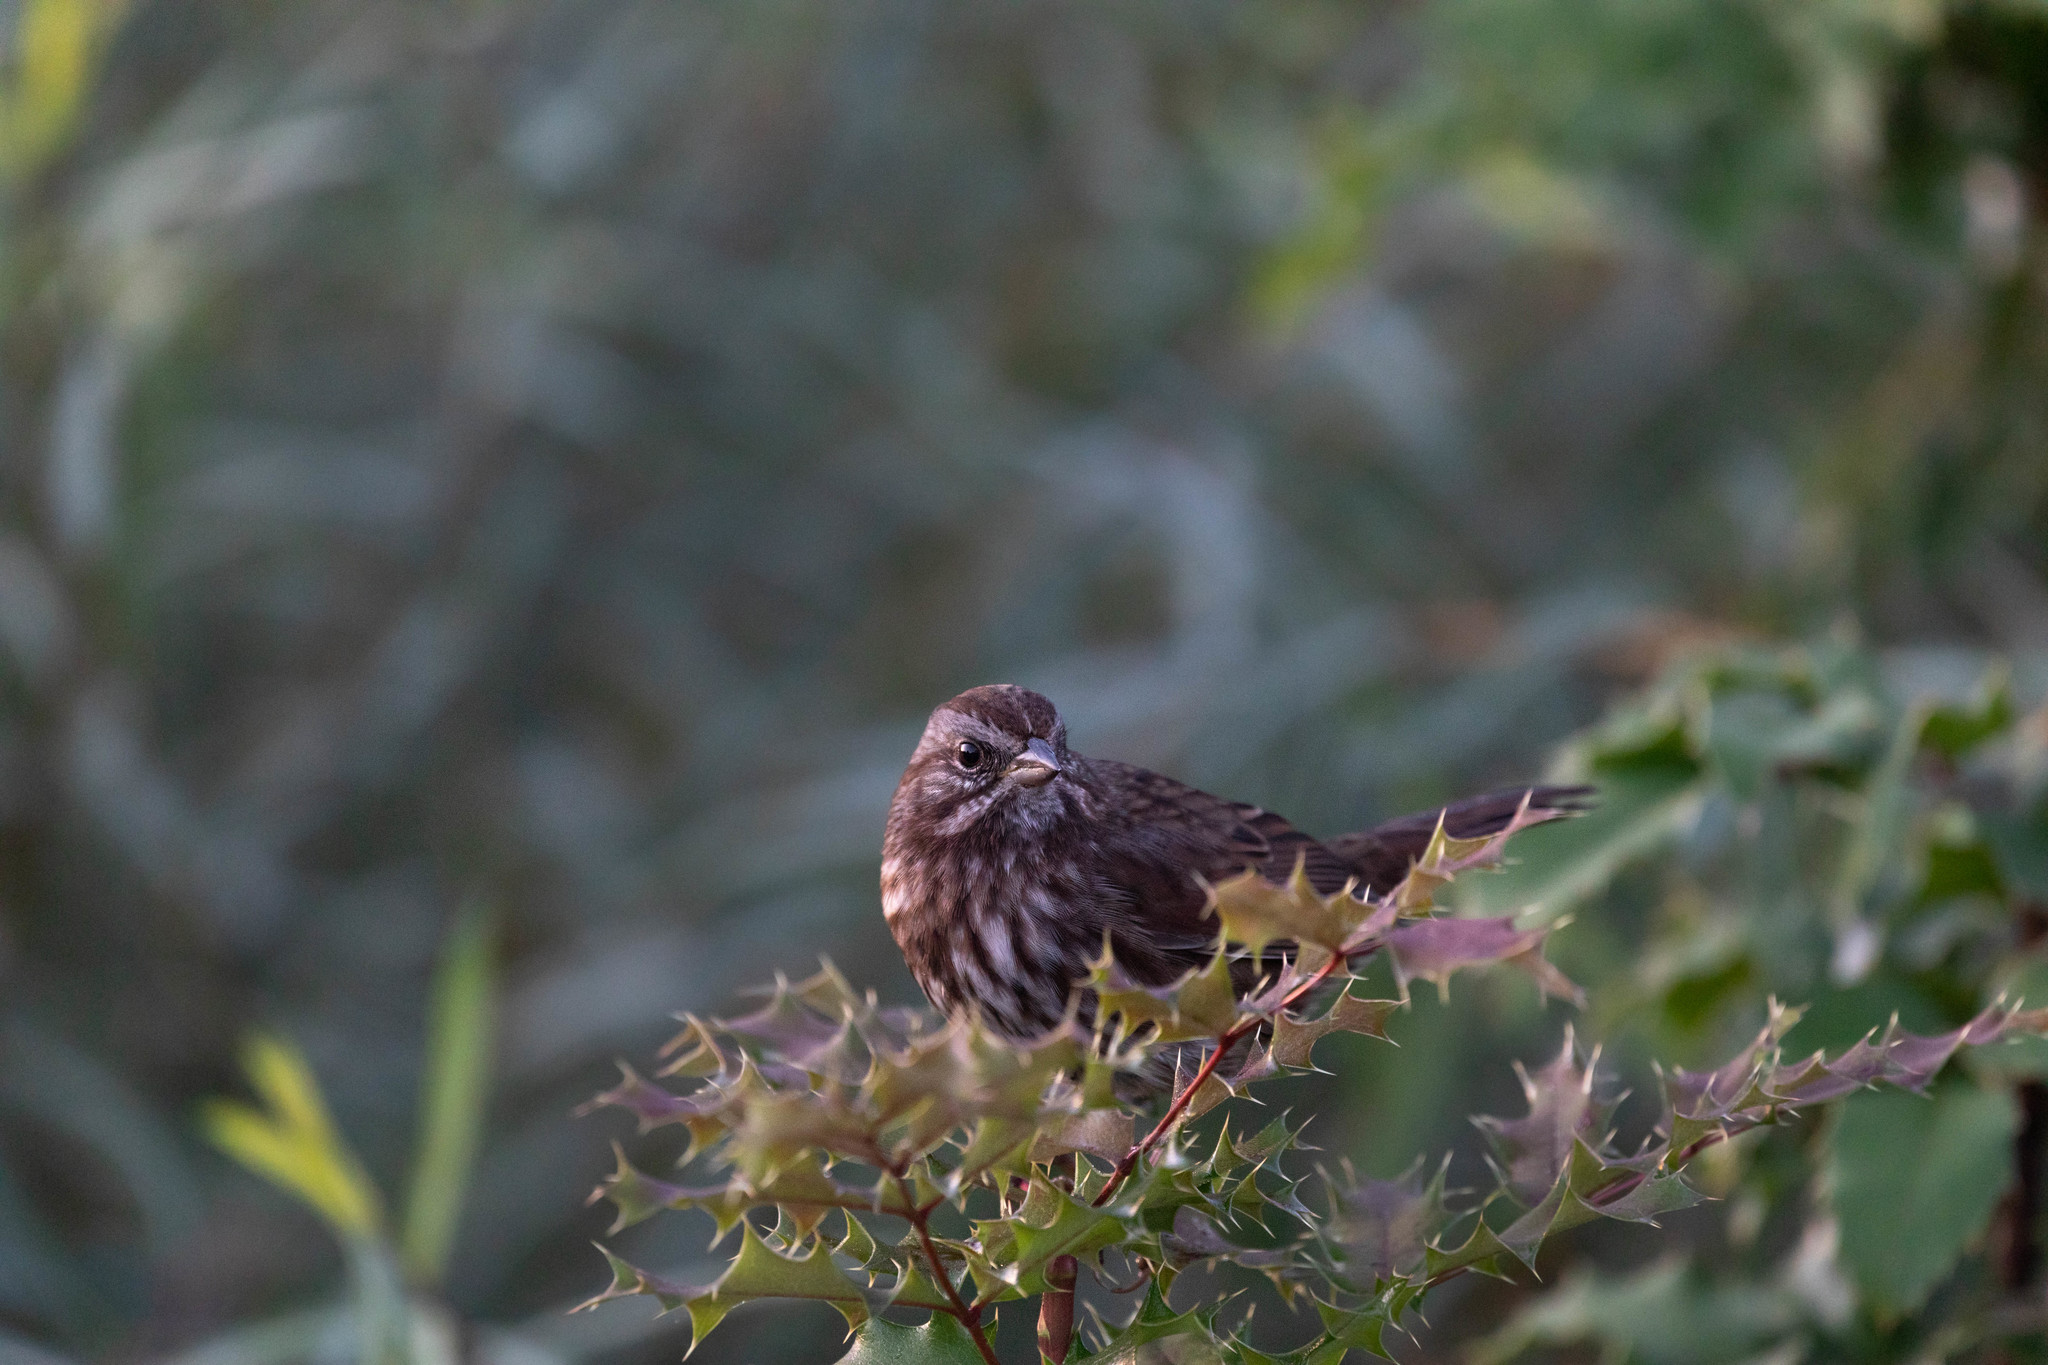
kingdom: Animalia
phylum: Chordata
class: Aves
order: Passeriformes
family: Passerellidae
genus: Melospiza
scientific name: Melospiza melodia
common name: Song sparrow
